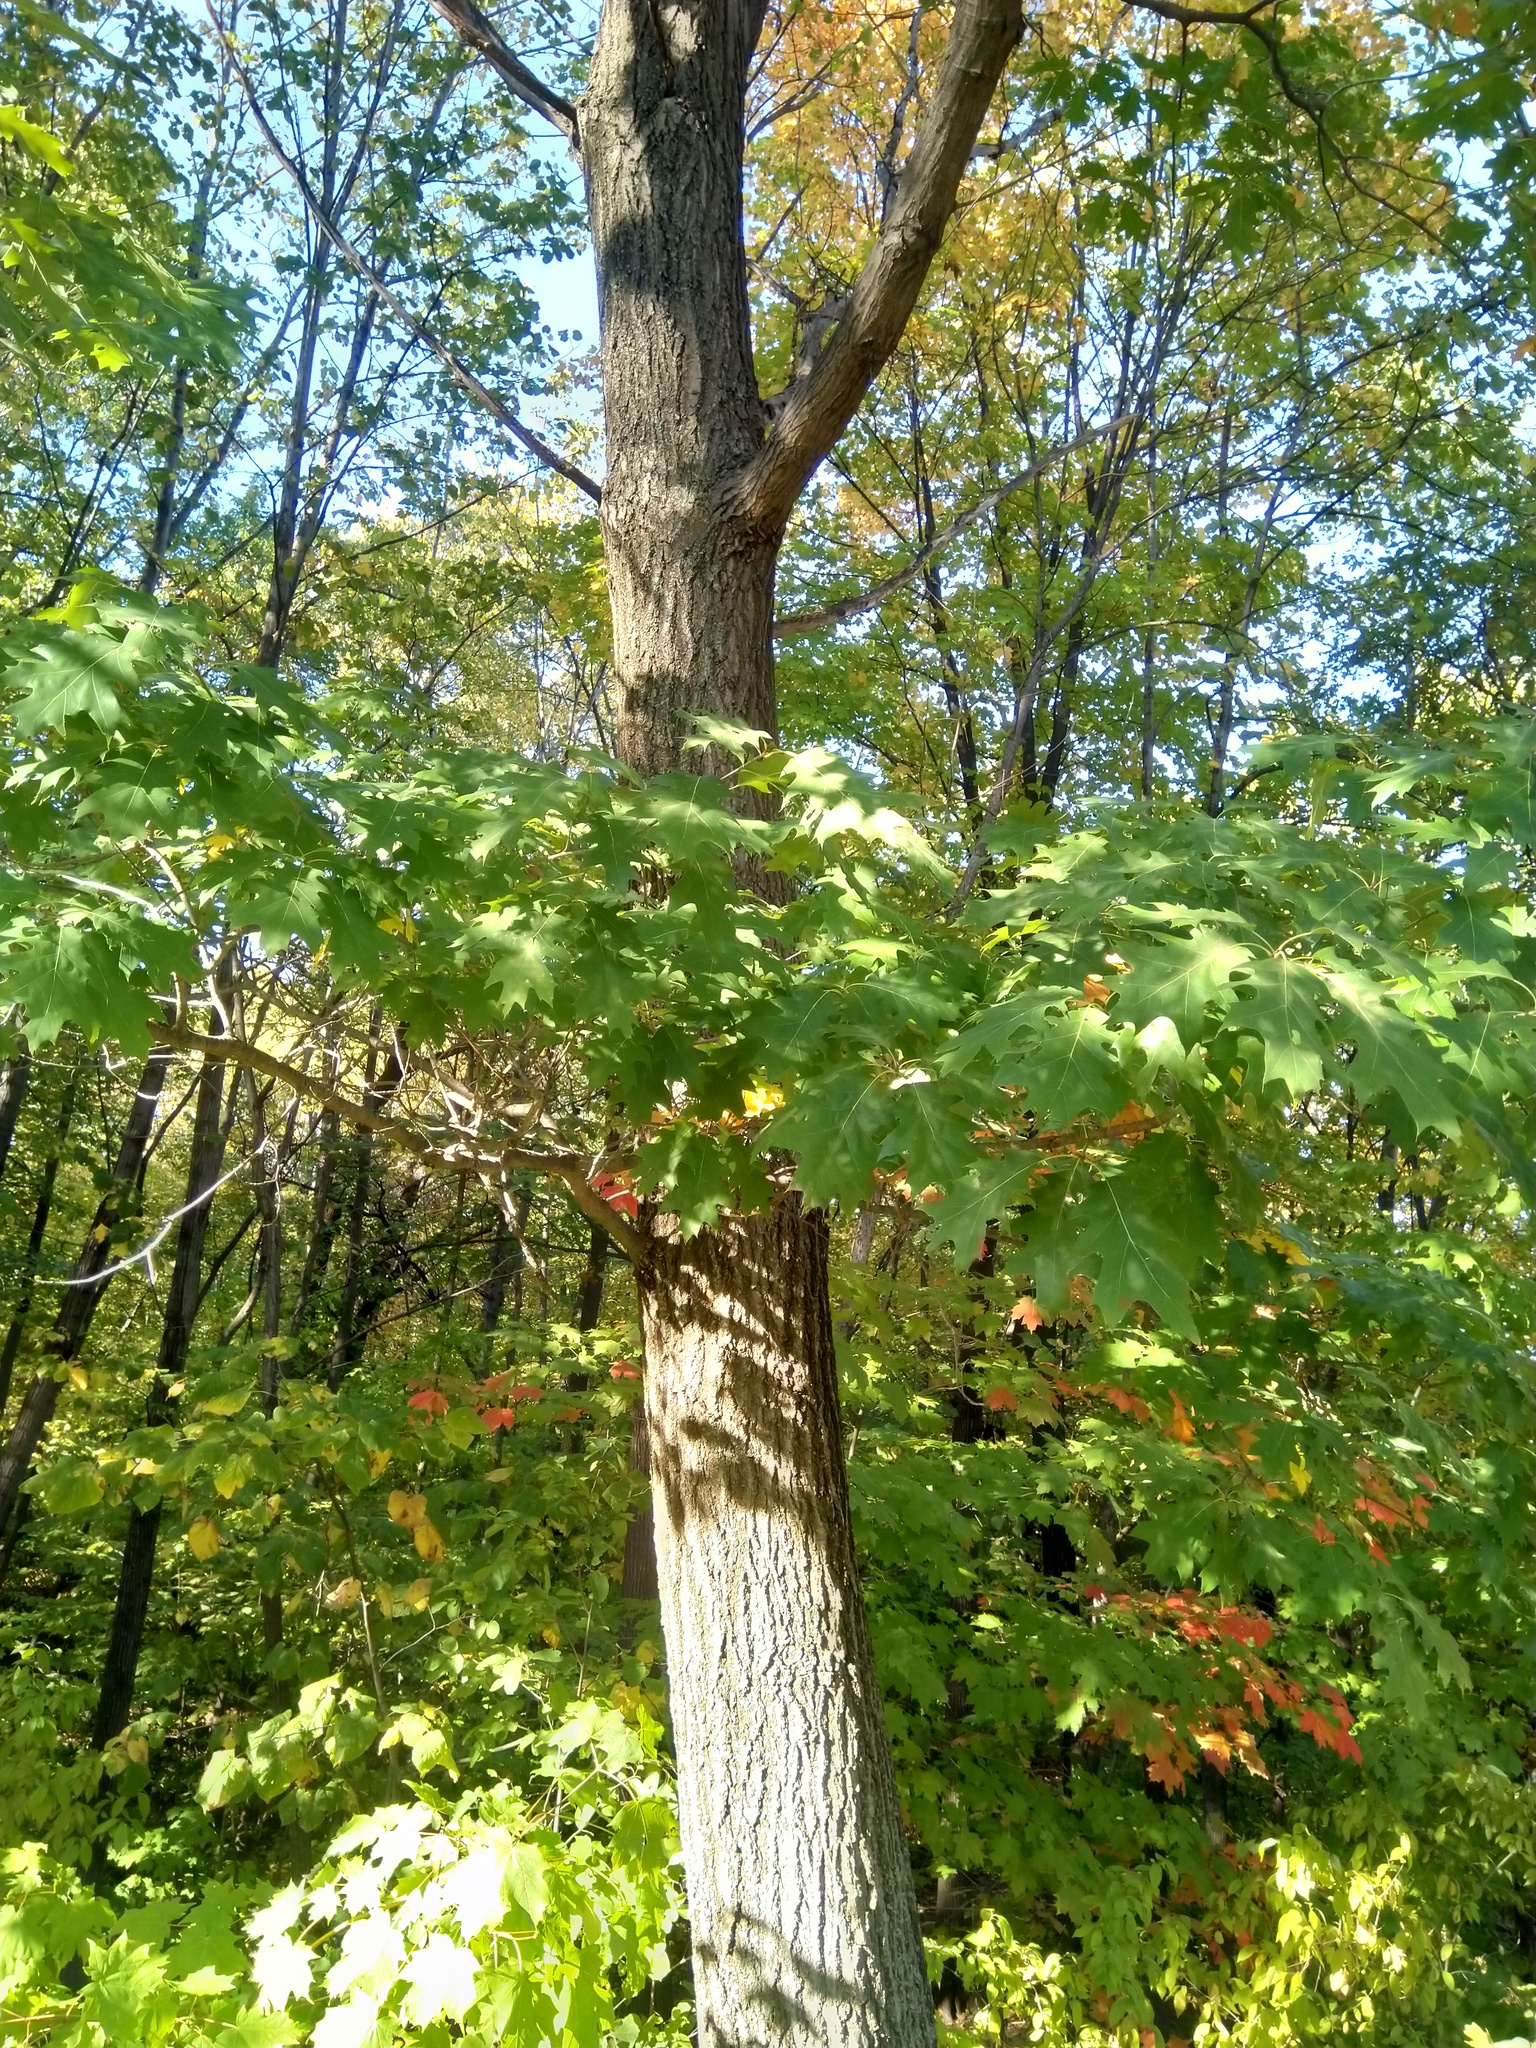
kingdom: Plantae
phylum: Tracheophyta
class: Magnoliopsida
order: Fagales
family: Fagaceae
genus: Quercus
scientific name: Quercus rubra
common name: Red oak
